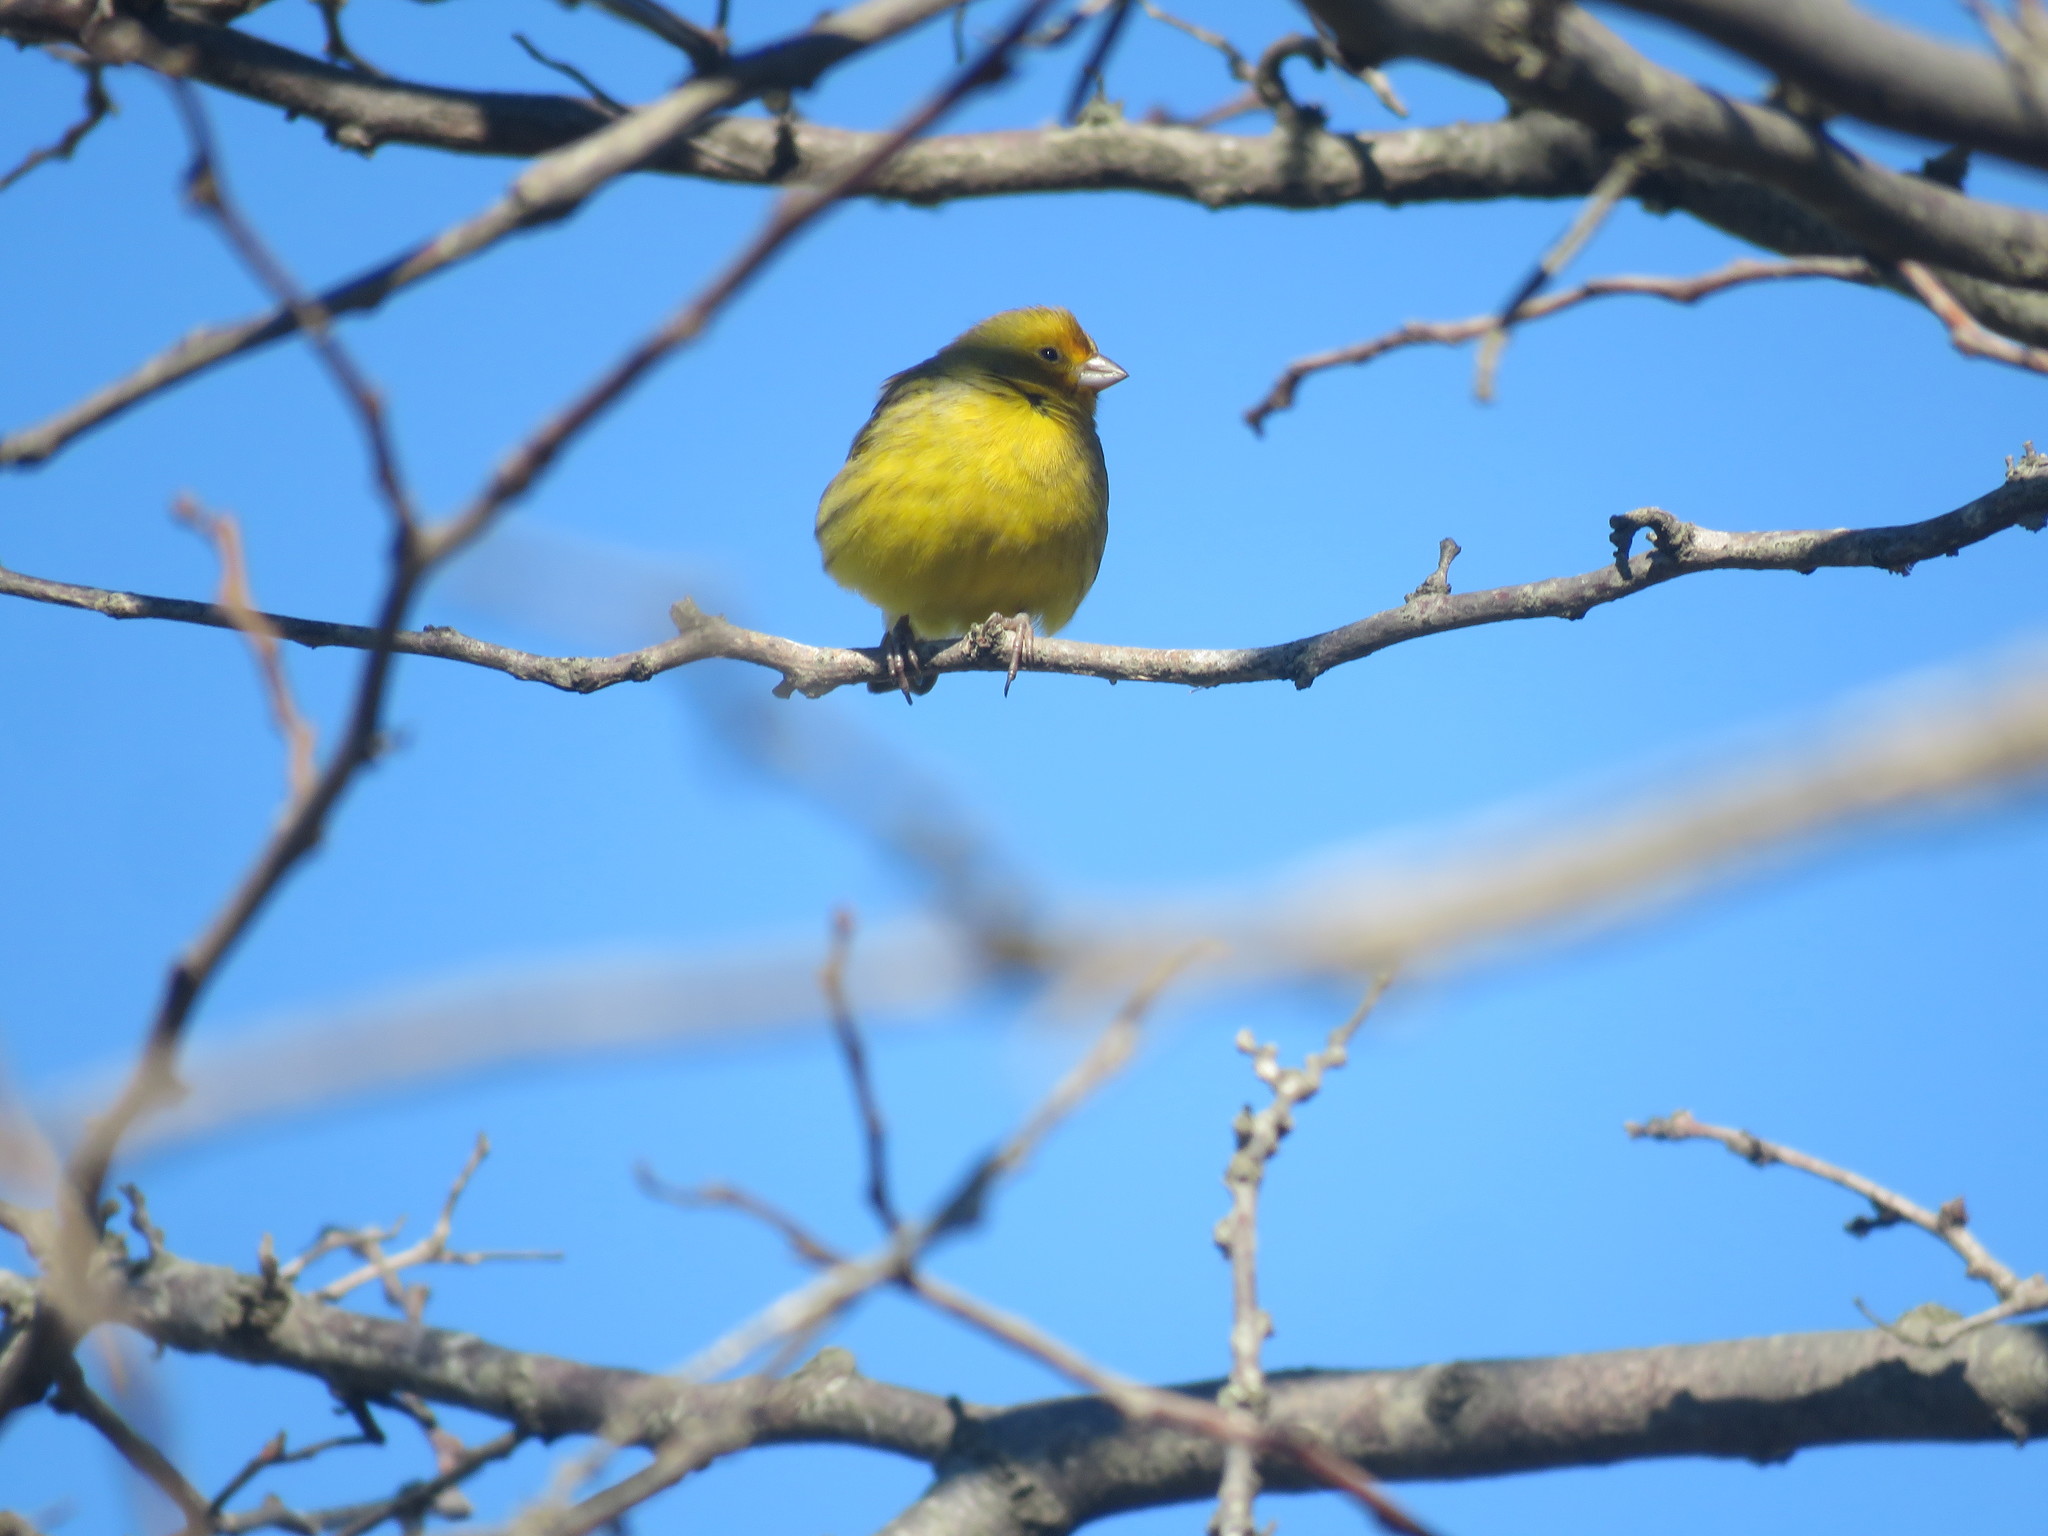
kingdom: Animalia
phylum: Chordata
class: Aves
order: Passeriformes
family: Thraupidae
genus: Sicalis
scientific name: Sicalis flaveola
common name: Saffron finch
